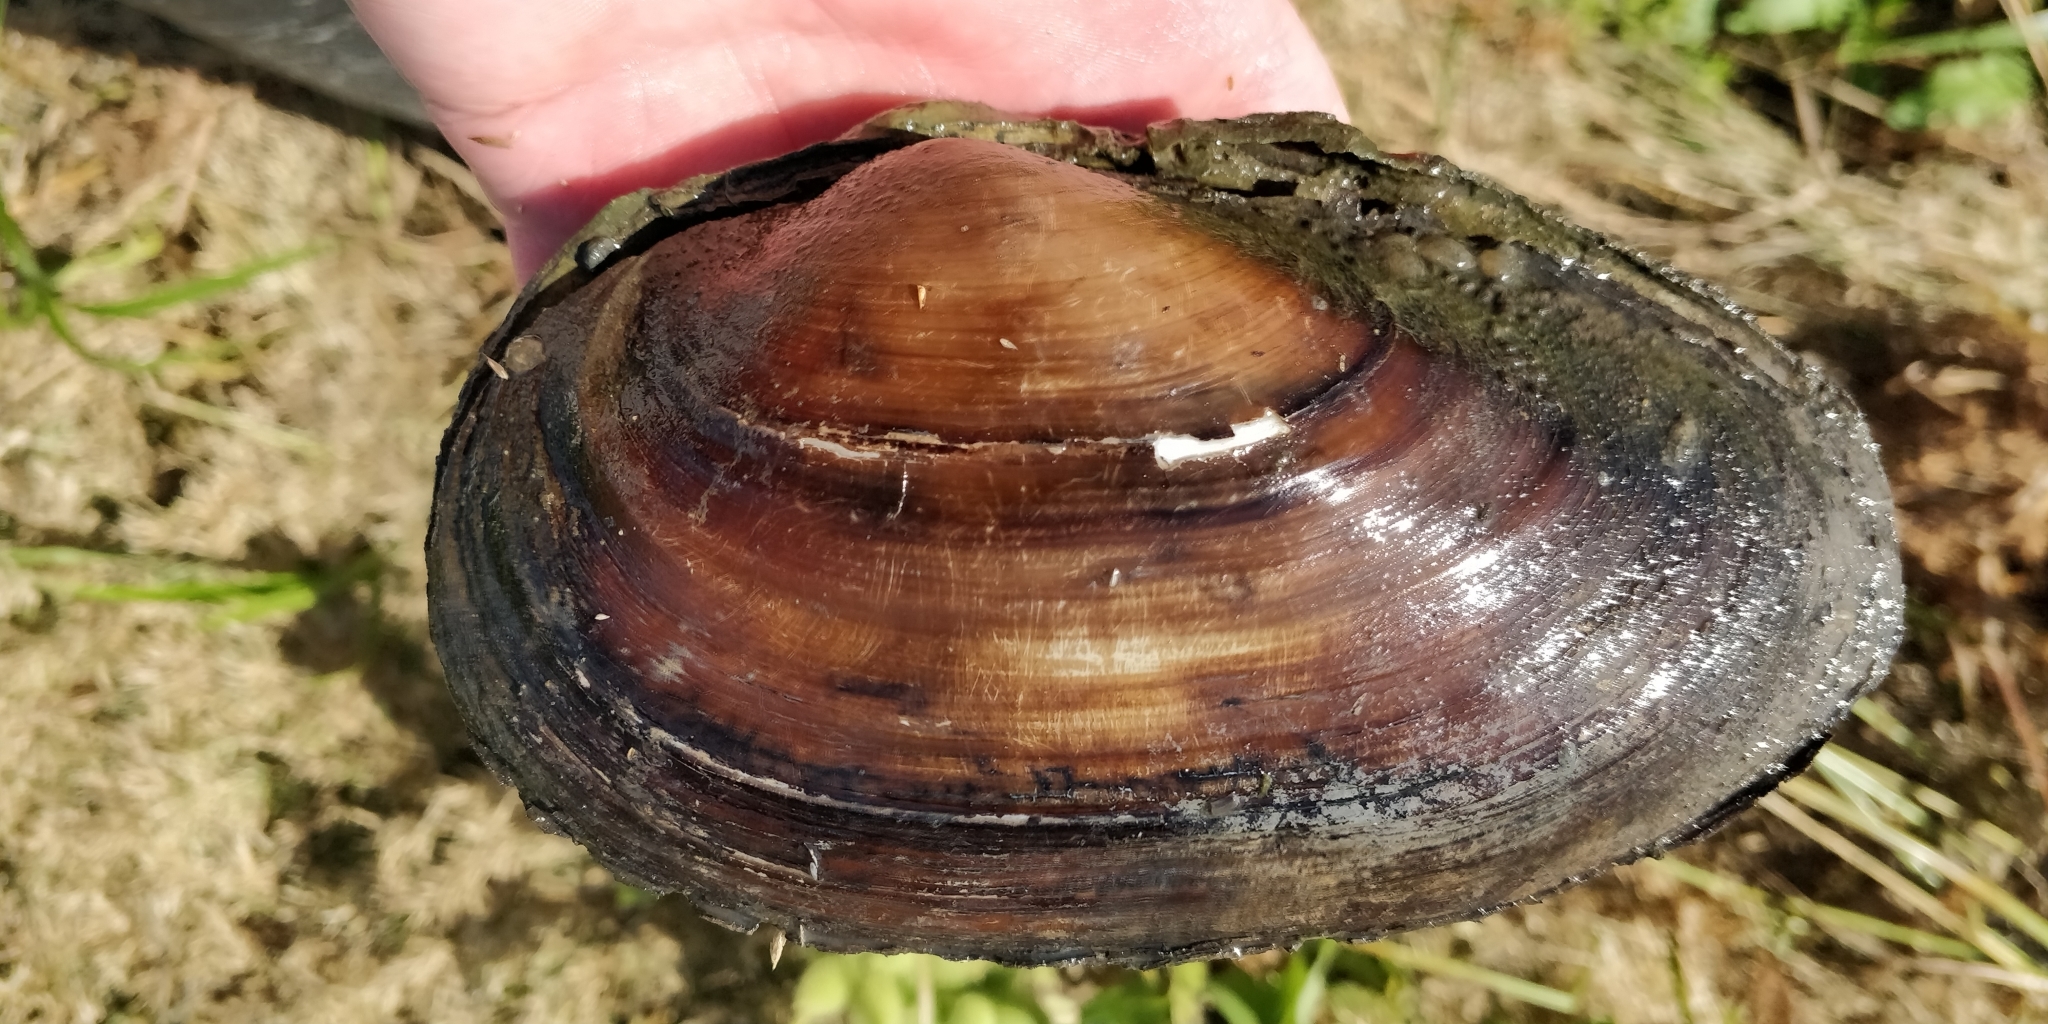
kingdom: Animalia
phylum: Mollusca
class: Bivalvia
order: Unionida
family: Unionidae
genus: Pyganodon
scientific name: Pyganodon grandis
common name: Giant floater
